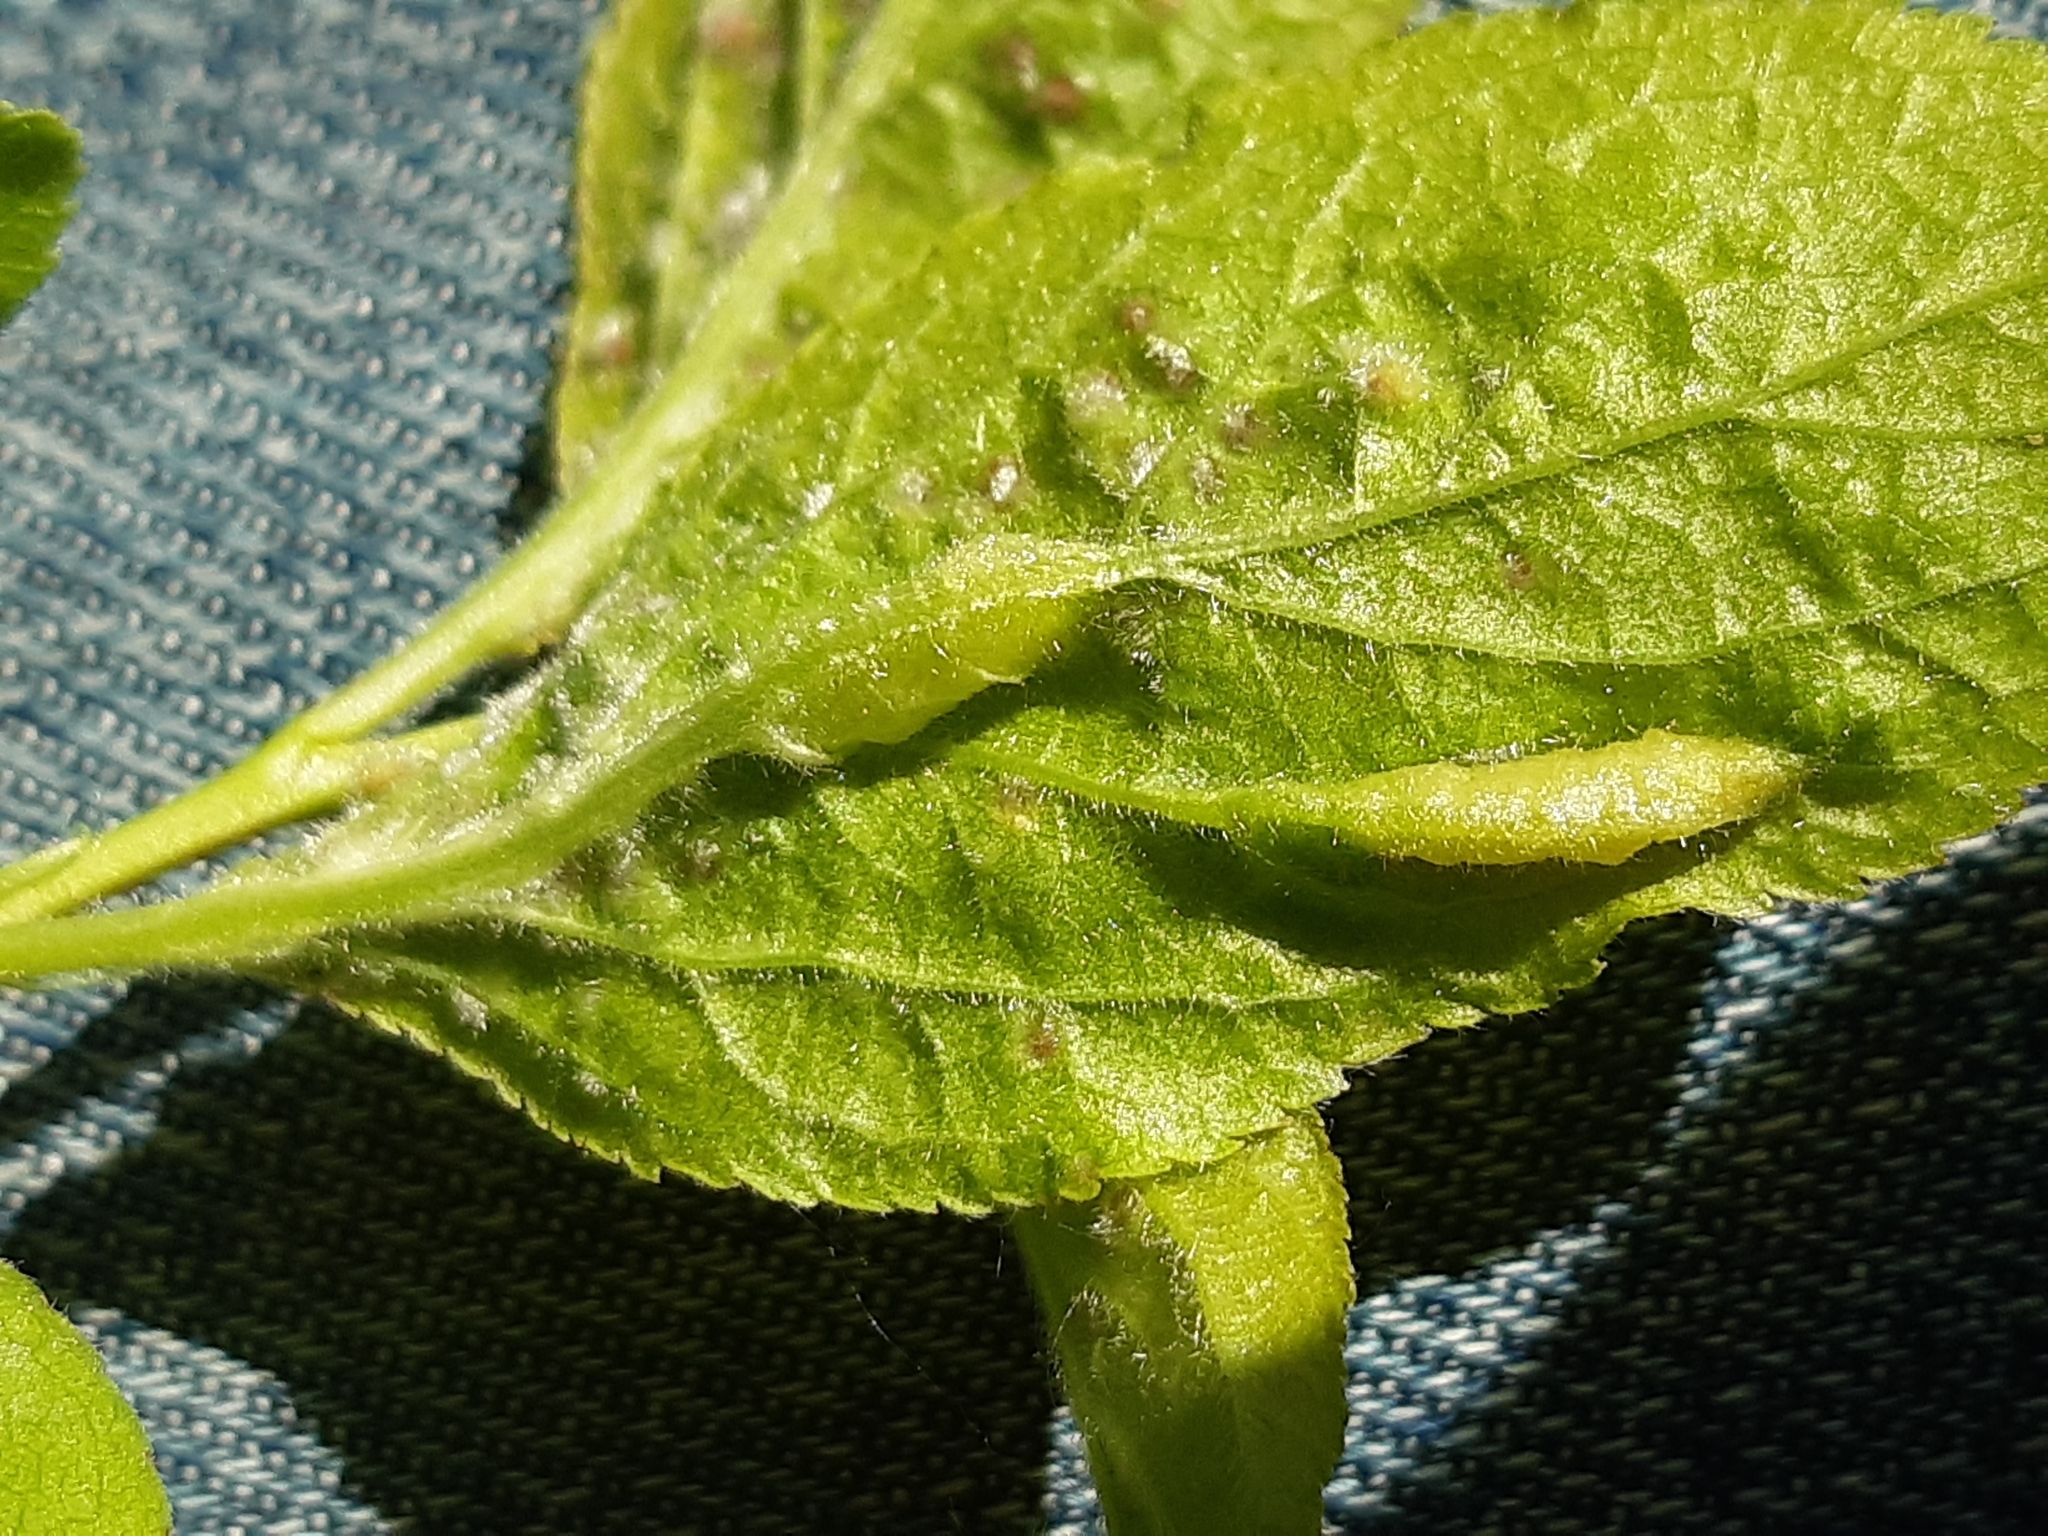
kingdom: Animalia
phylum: Arthropoda
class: Insecta
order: Diptera
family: Cecidomyiidae
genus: Putoniella
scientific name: Putoniella pruni
